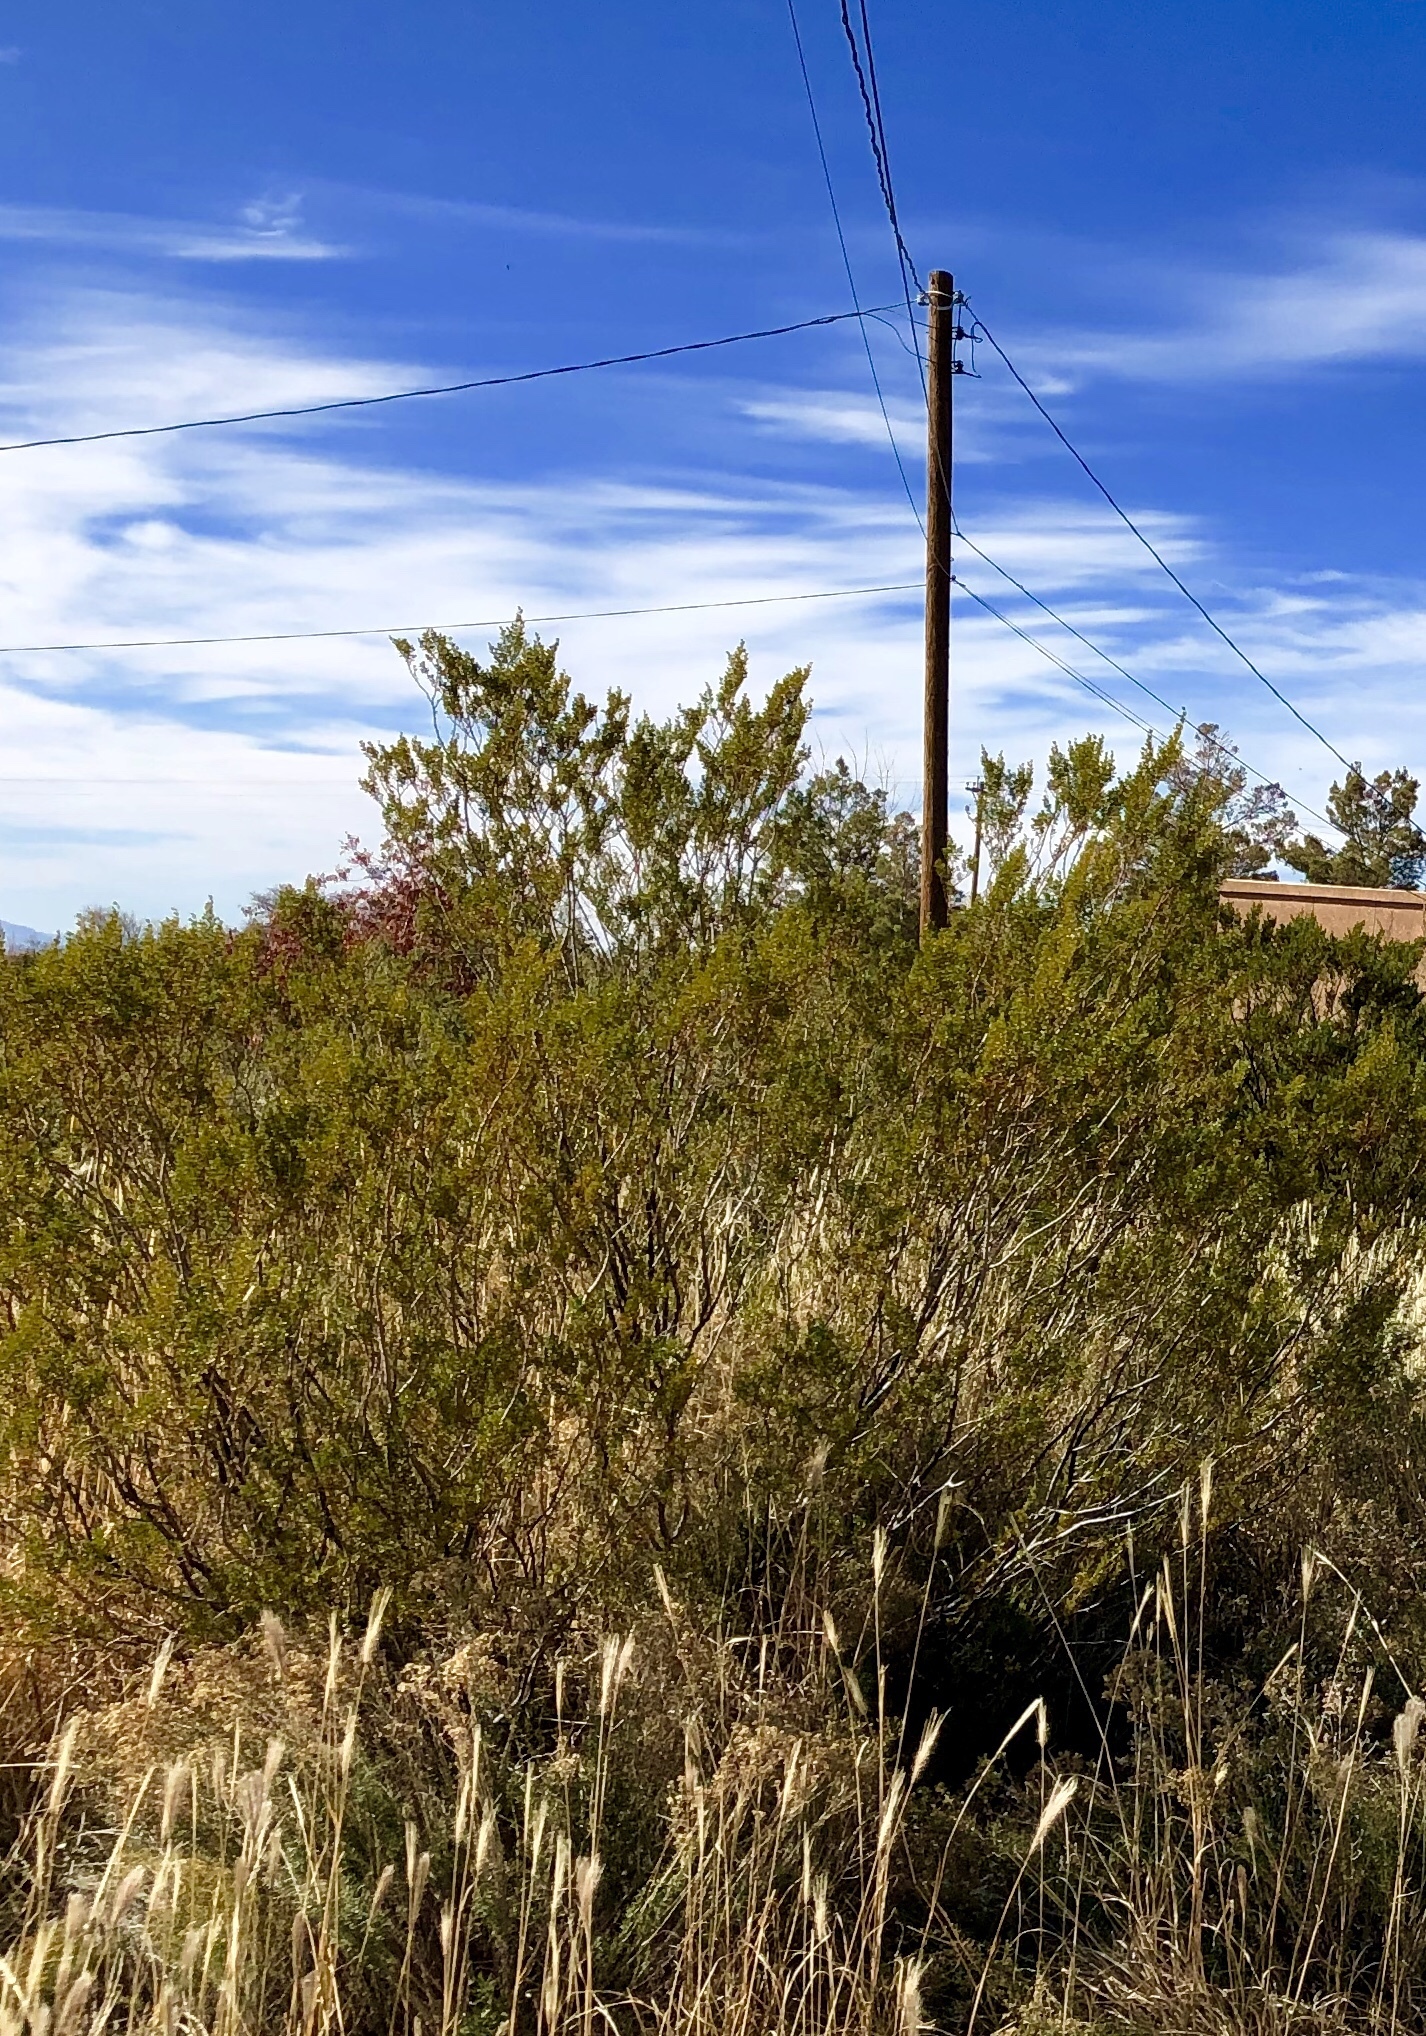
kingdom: Plantae
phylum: Tracheophyta
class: Magnoliopsida
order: Zygophyllales
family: Zygophyllaceae
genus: Larrea
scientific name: Larrea tridentata
